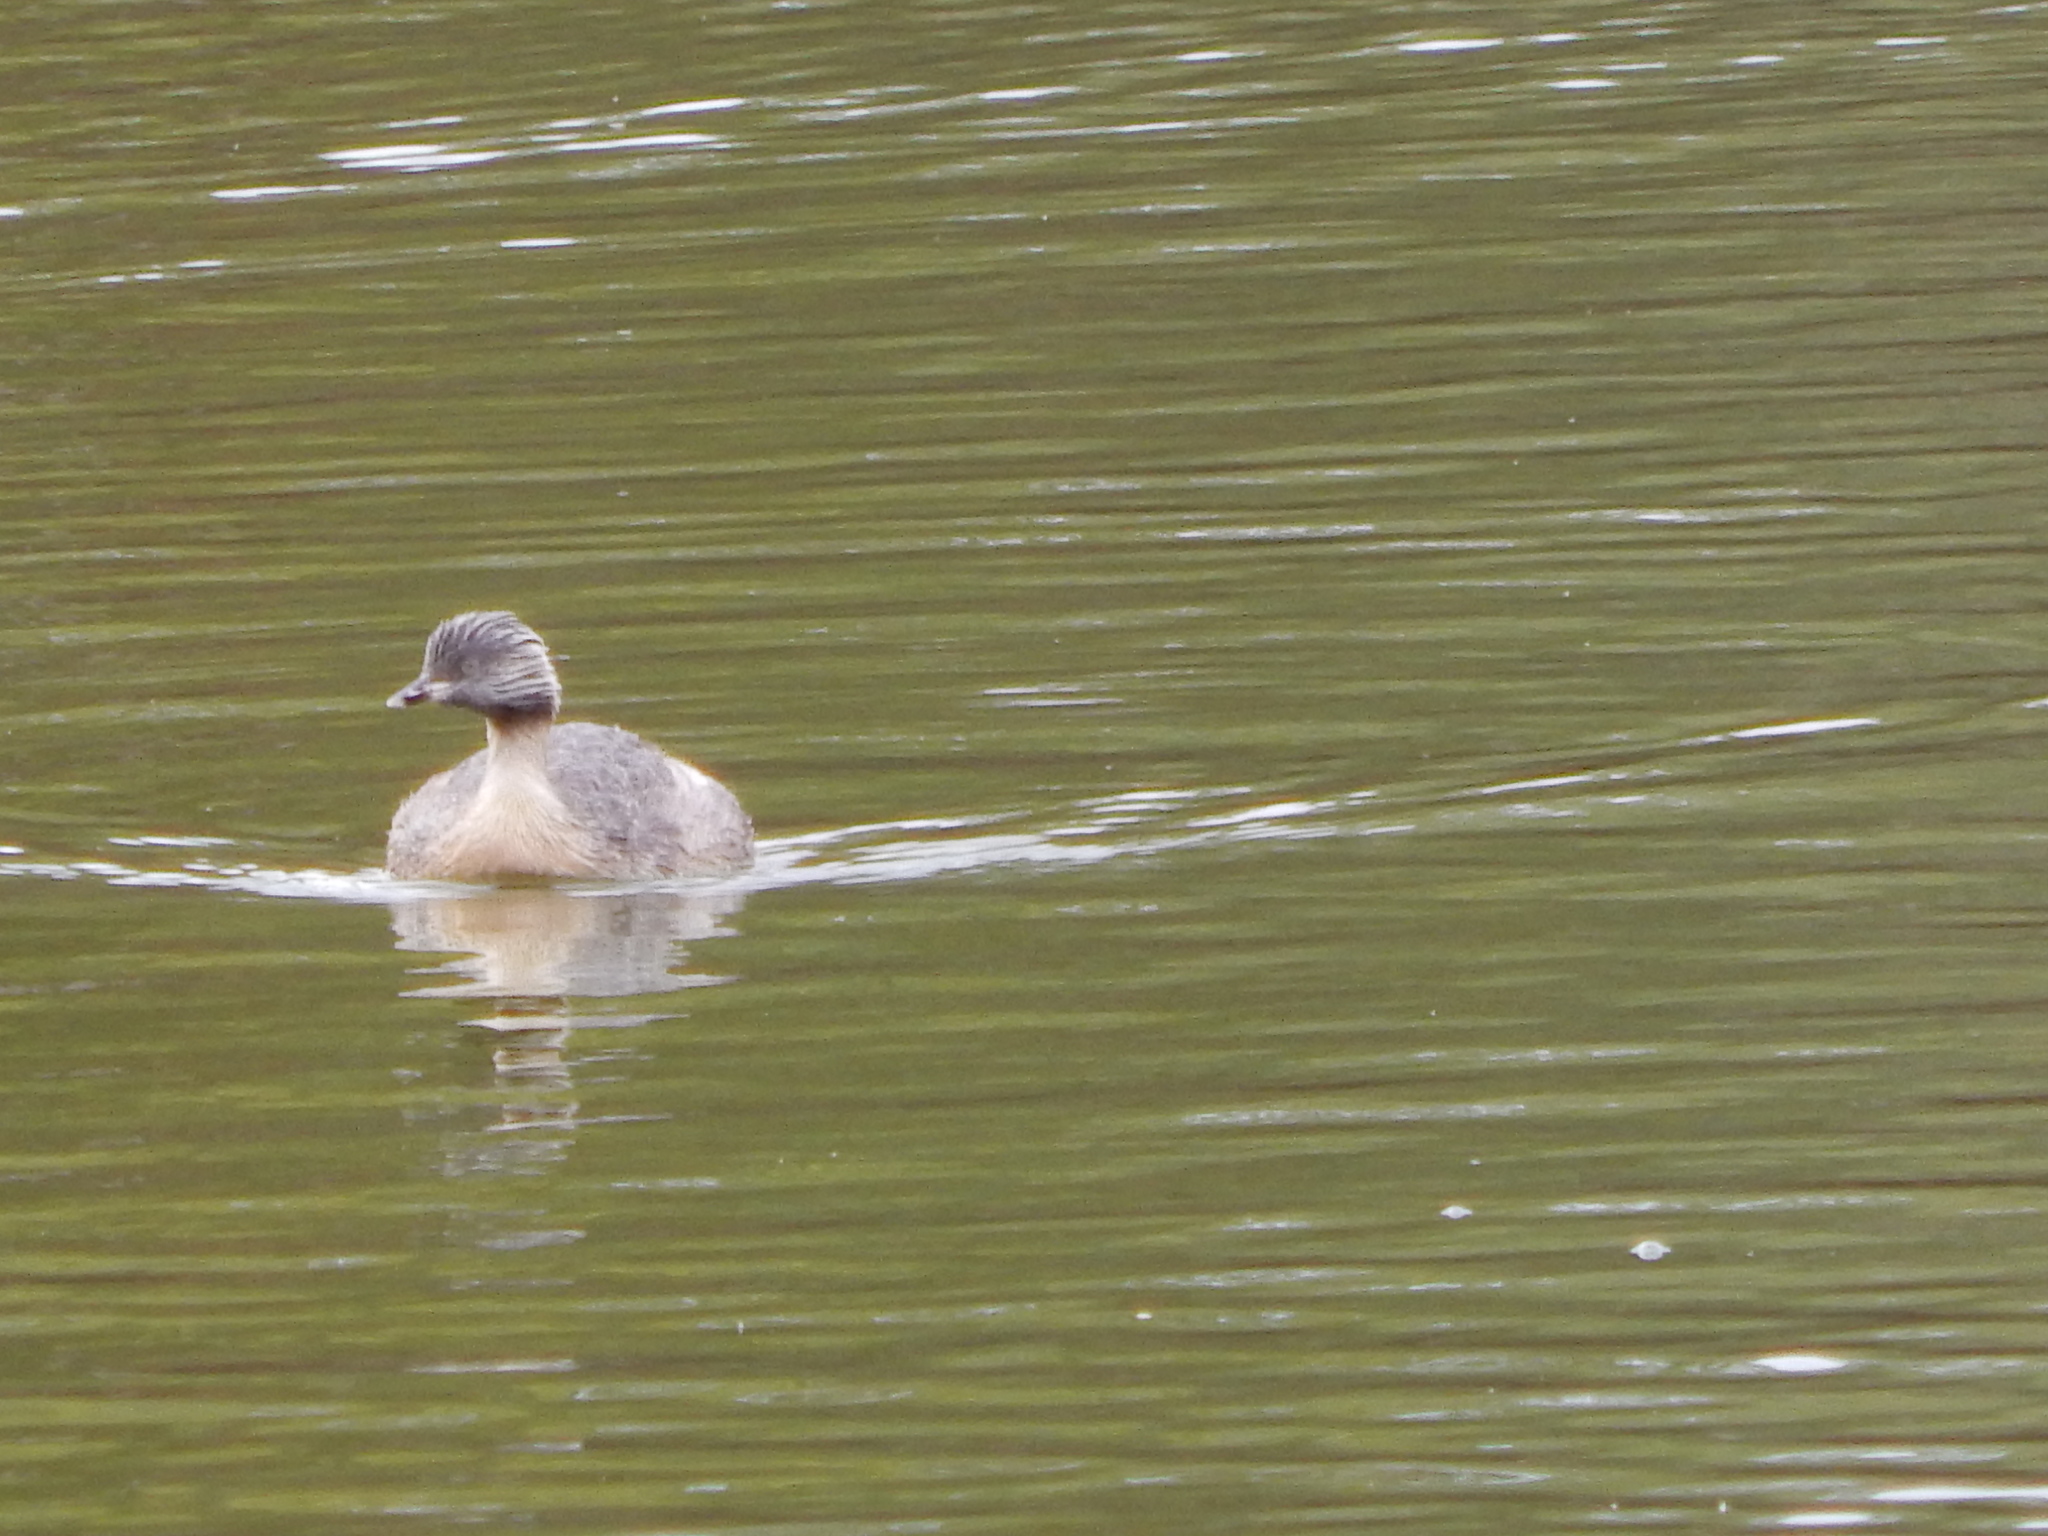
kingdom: Animalia
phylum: Chordata
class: Aves
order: Podicipediformes
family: Podicipedidae
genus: Poliocephalus
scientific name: Poliocephalus poliocephalus
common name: Hoary-headed grebe
